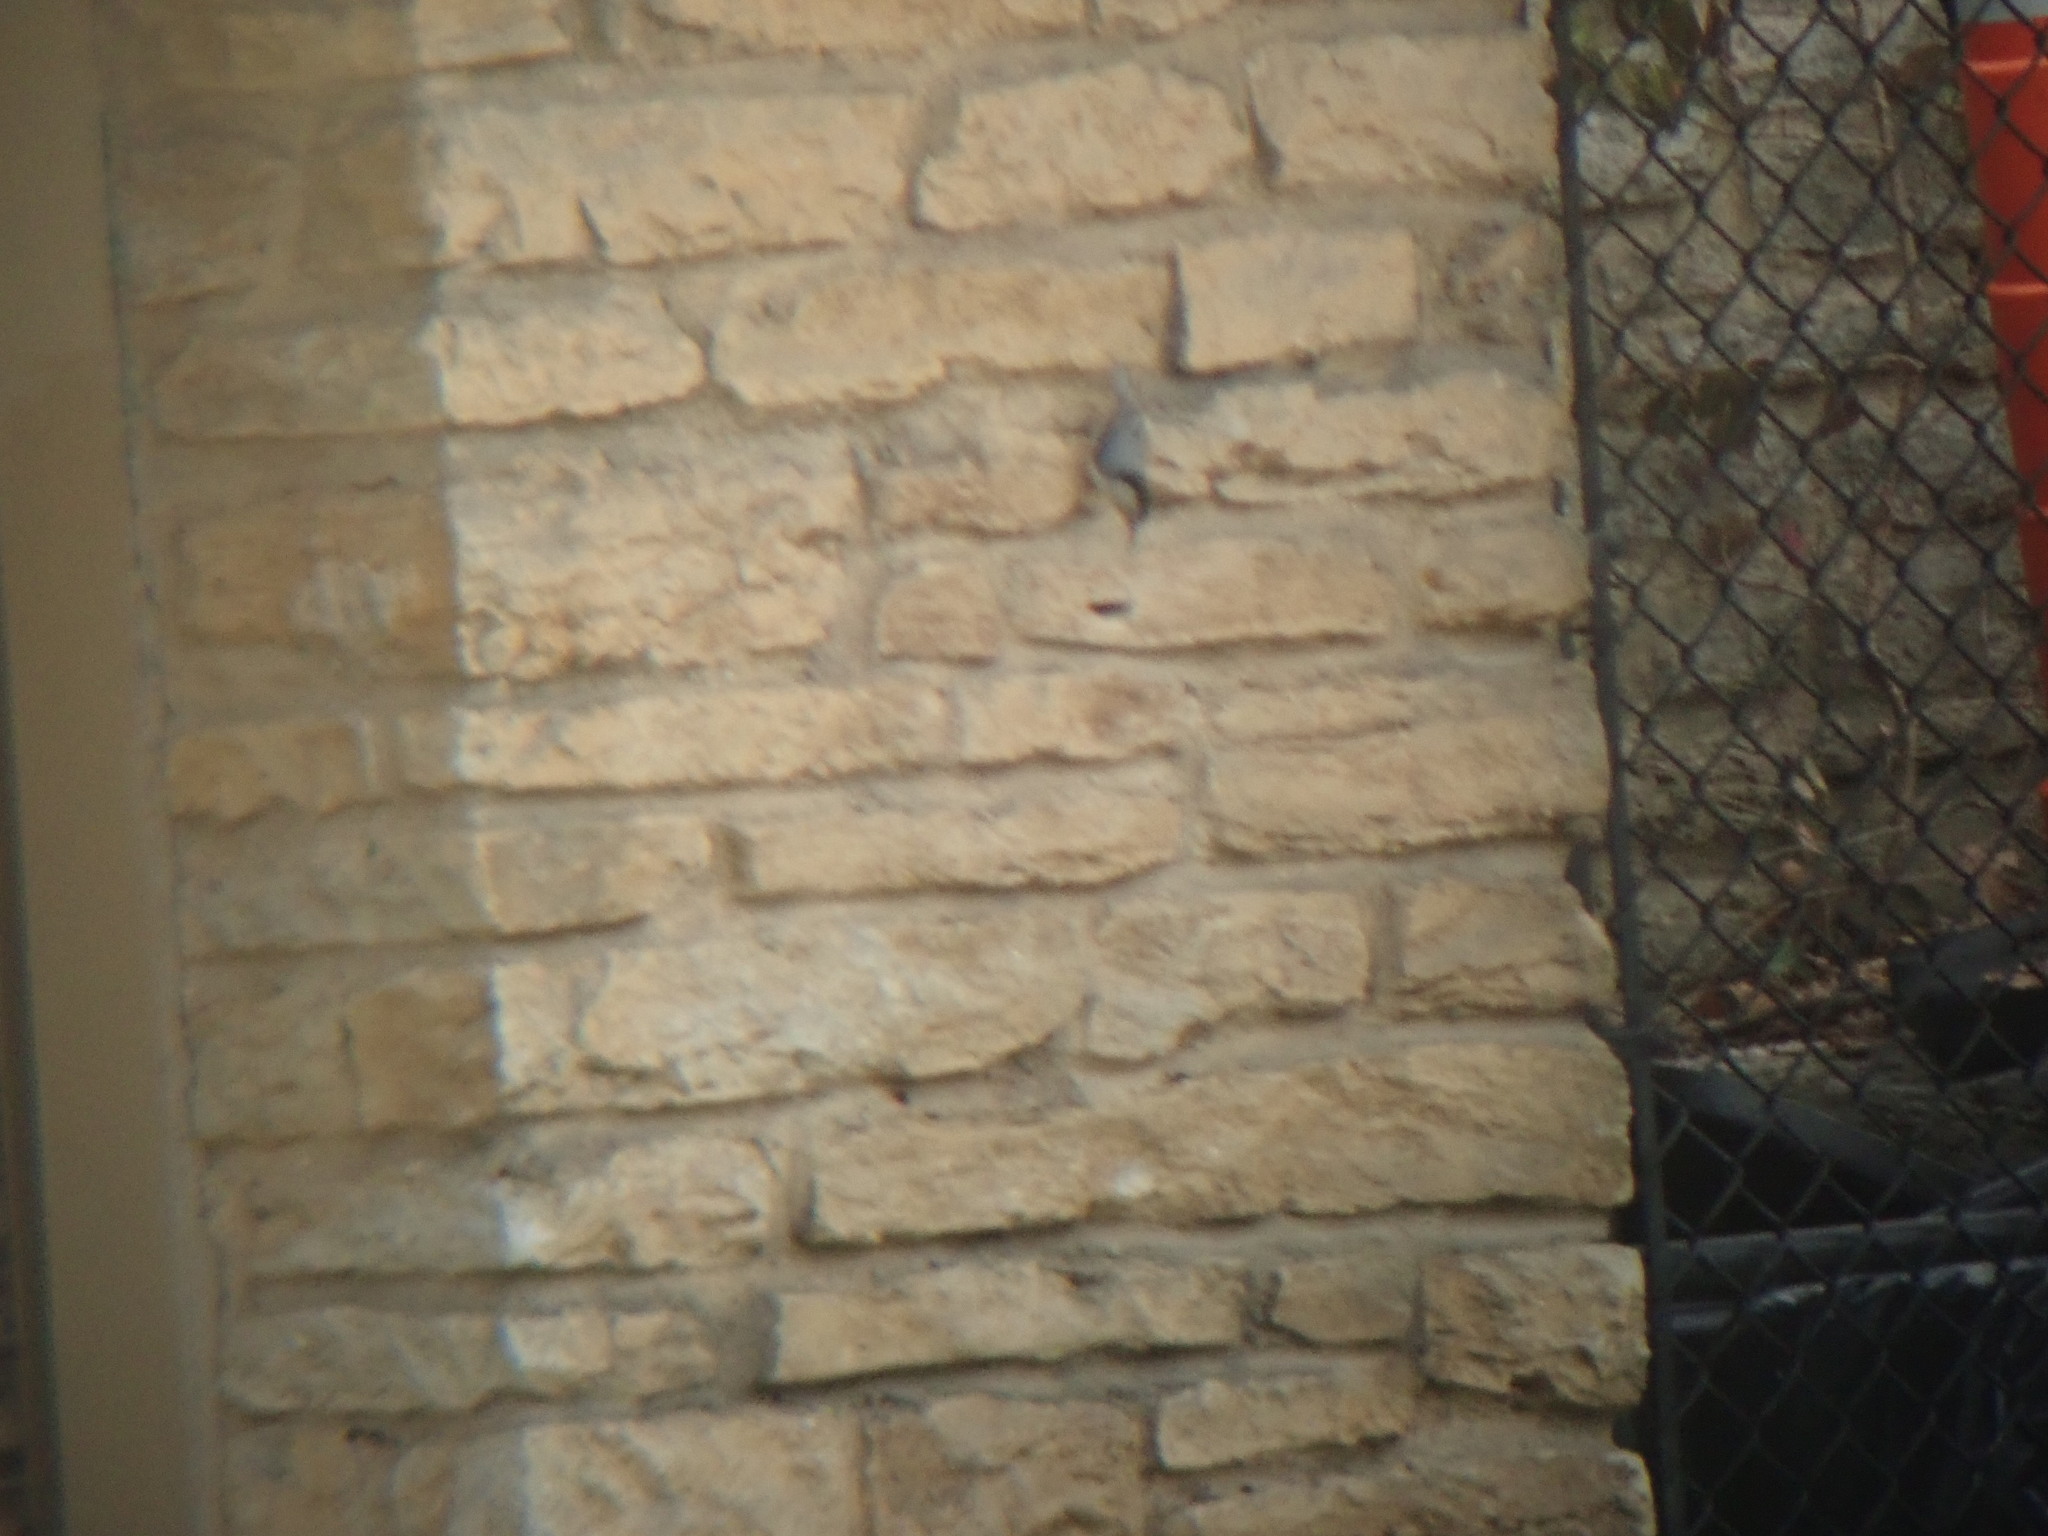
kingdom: Animalia
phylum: Chordata
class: Aves
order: Passeriformes
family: Sittidae
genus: Sitta
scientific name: Sitta carolinensis
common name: White-breasted nuthatch
